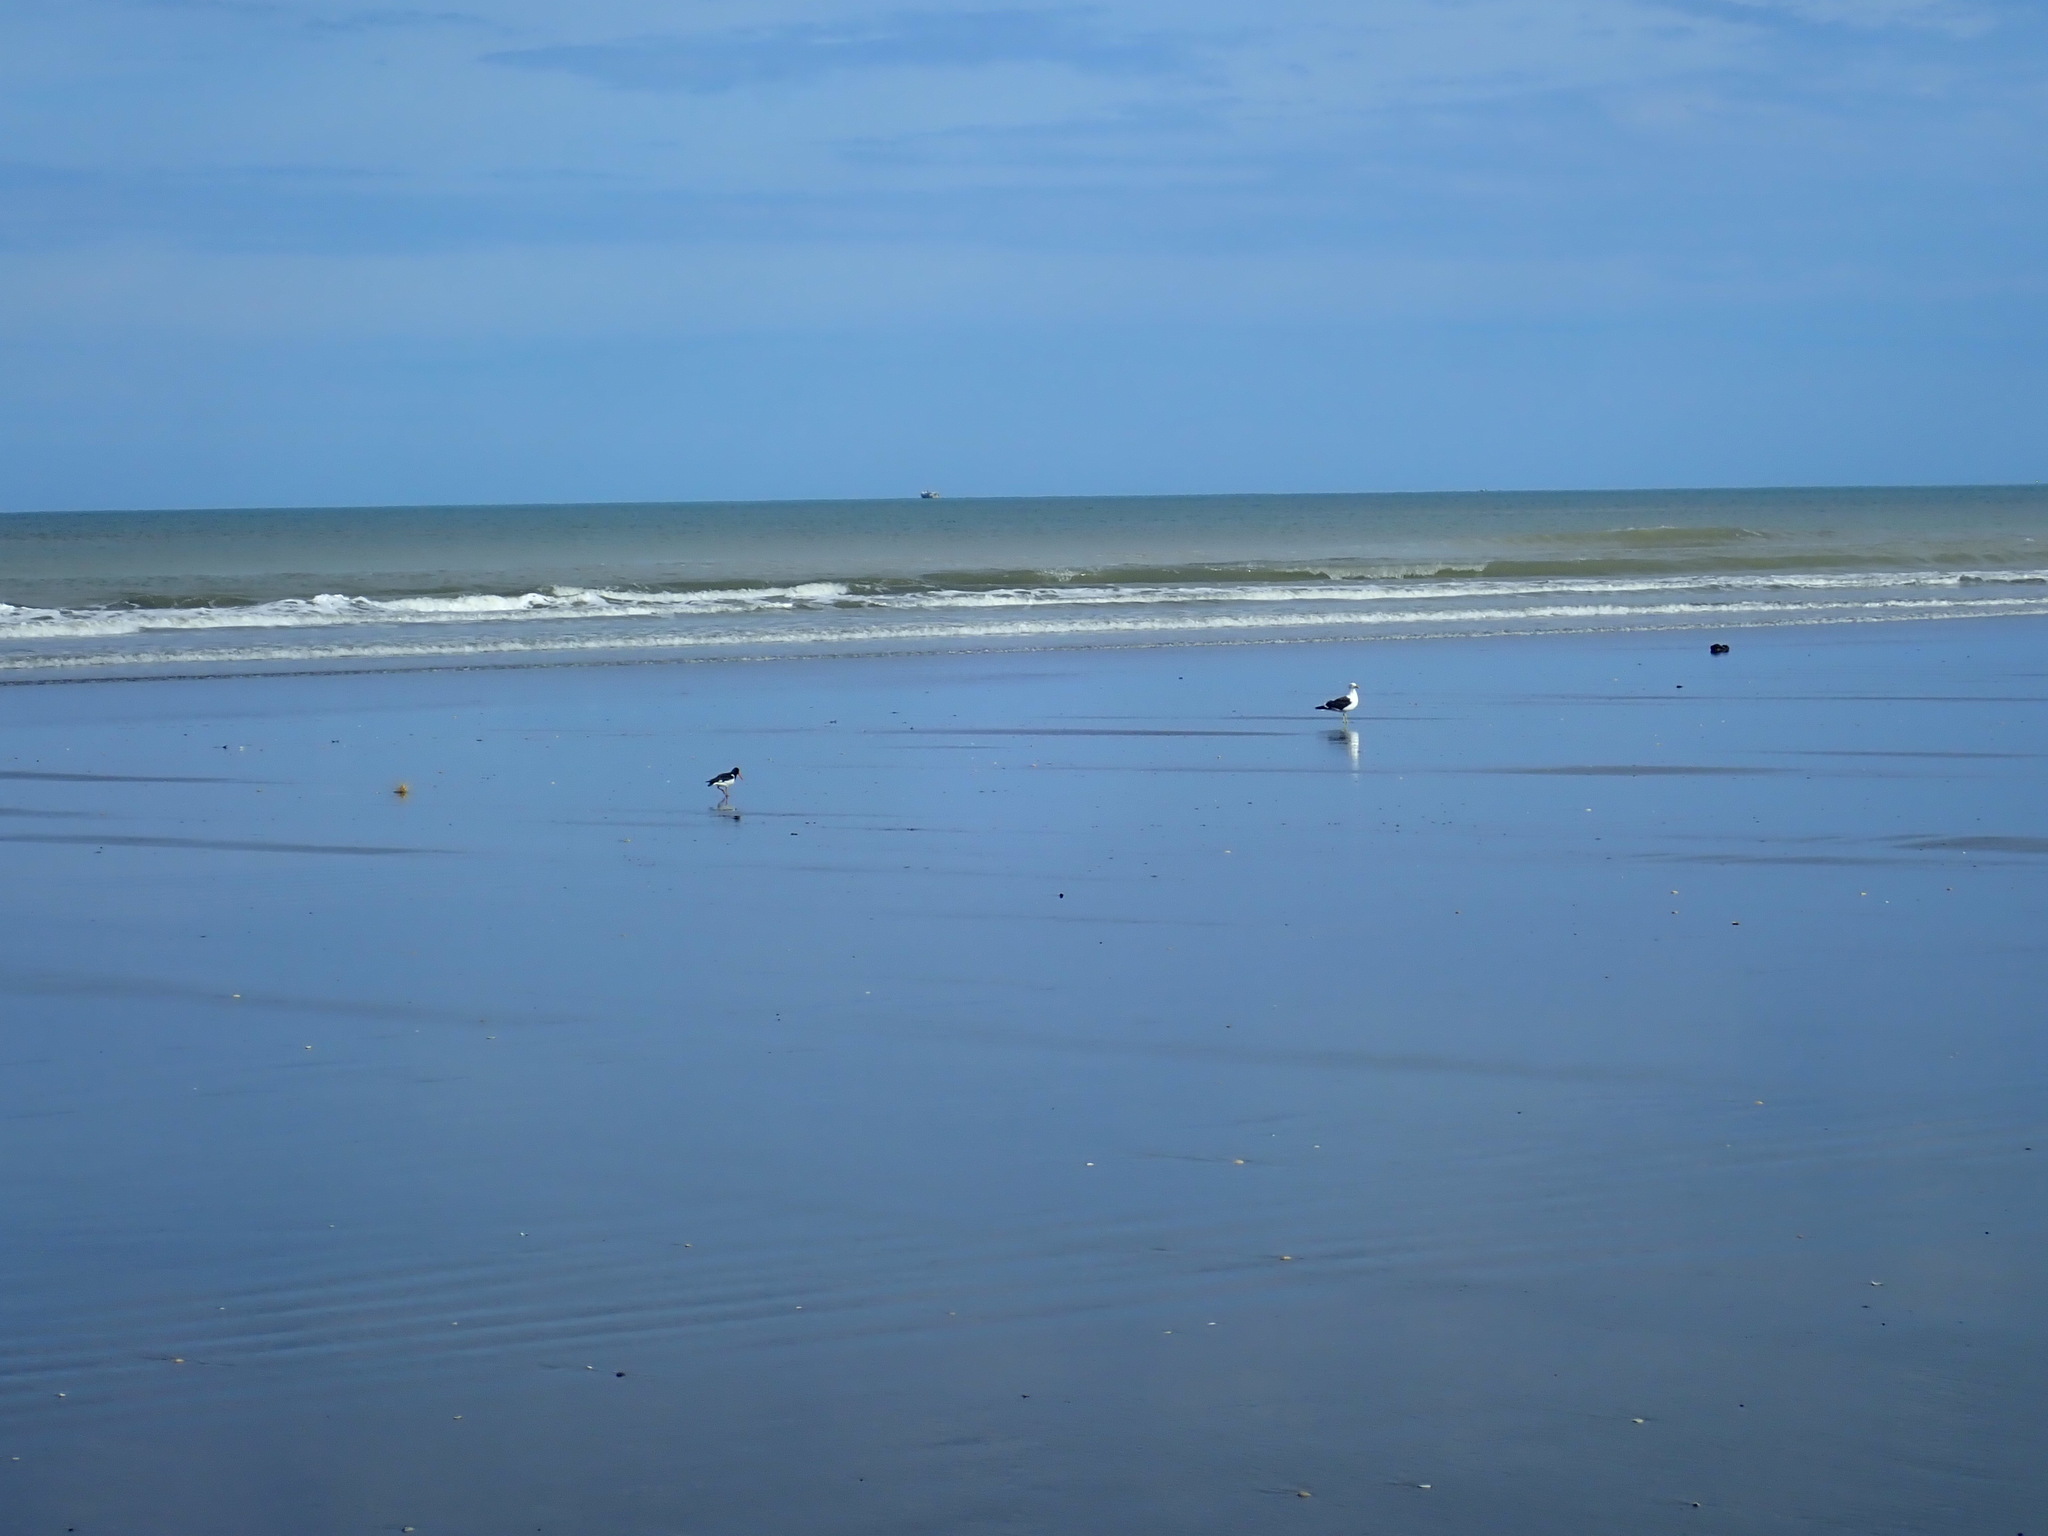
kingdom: Animalia
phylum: Chordata
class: Aves
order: Charadriiformes
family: Haematopodidae
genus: Haematopus
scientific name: Haematopus finschi
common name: South island oystercatcher
